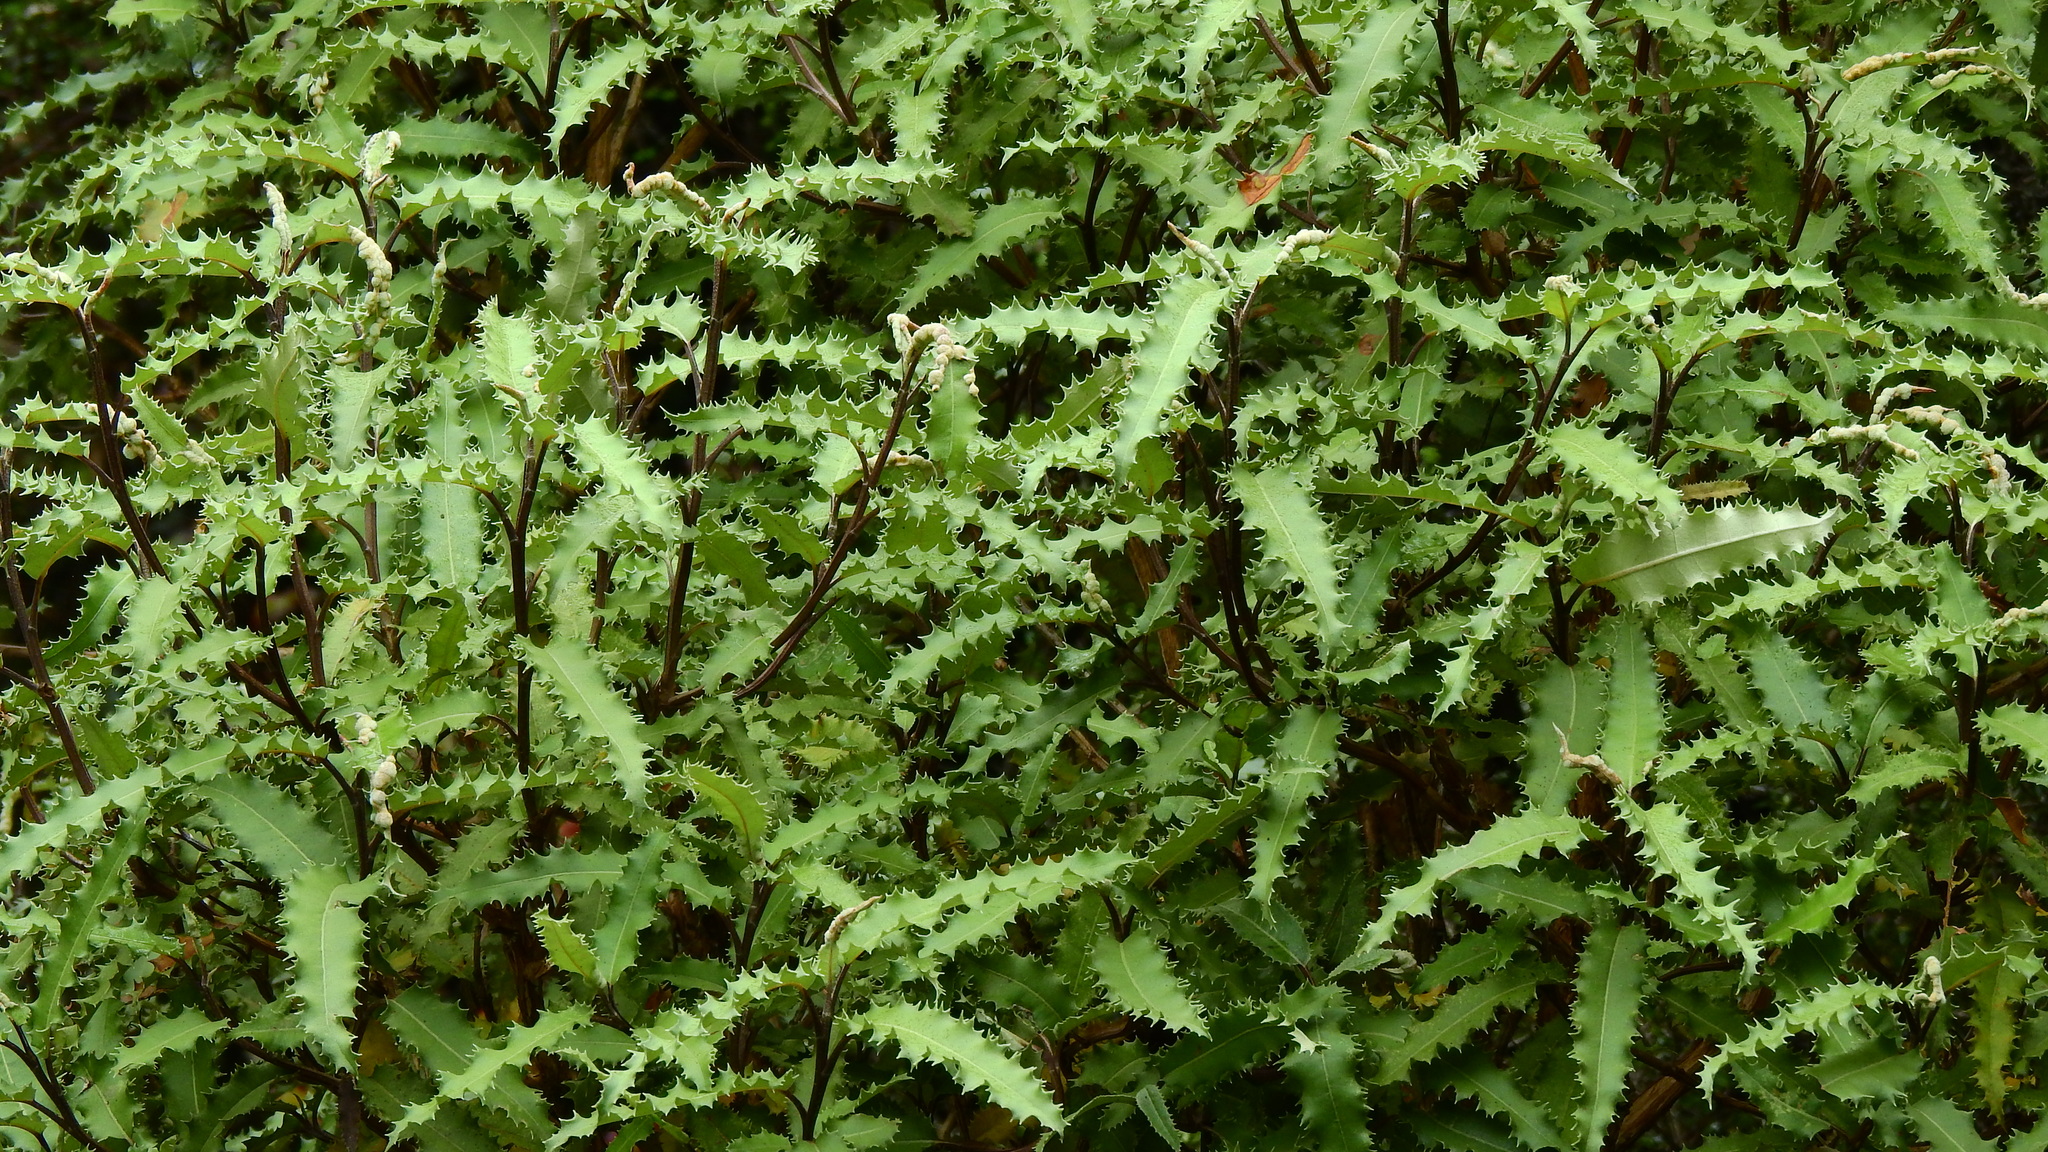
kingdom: Plantae
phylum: Tracheophyta
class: Magnoliopsida
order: Asterales
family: Asteraceae
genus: Olearia
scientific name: Olearia ilicifolia
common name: Maori-holly
